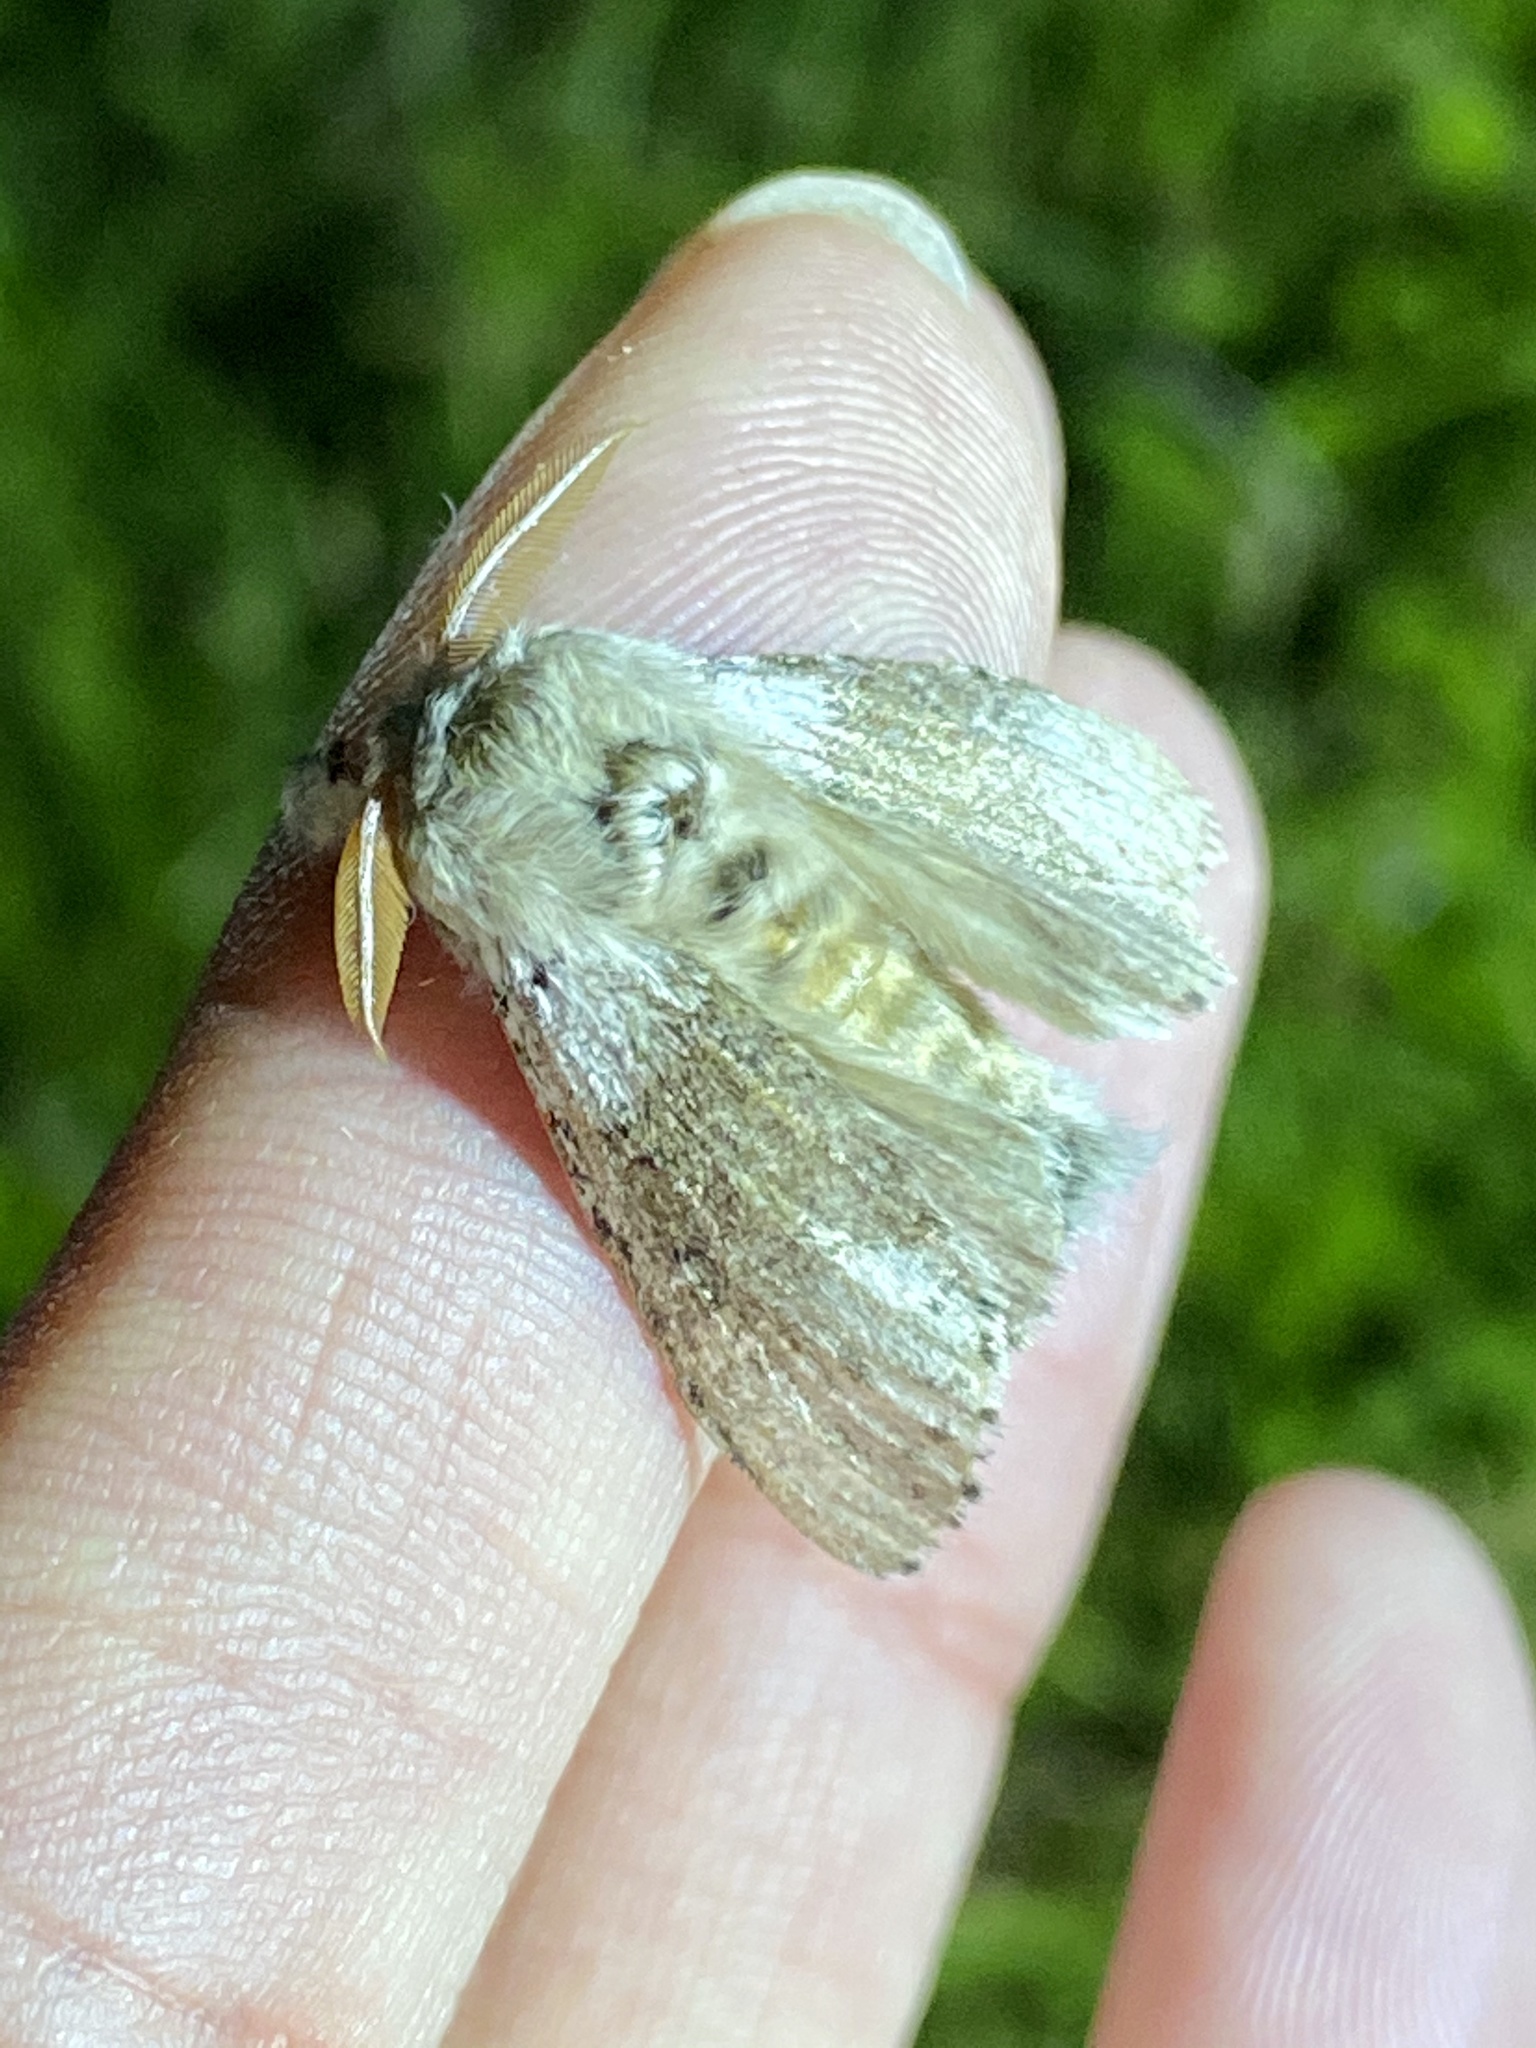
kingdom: Animalia
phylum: Arthropoda
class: Insecta
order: Lepidoptera
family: Erebidae
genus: Calliteara
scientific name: Calliteara
